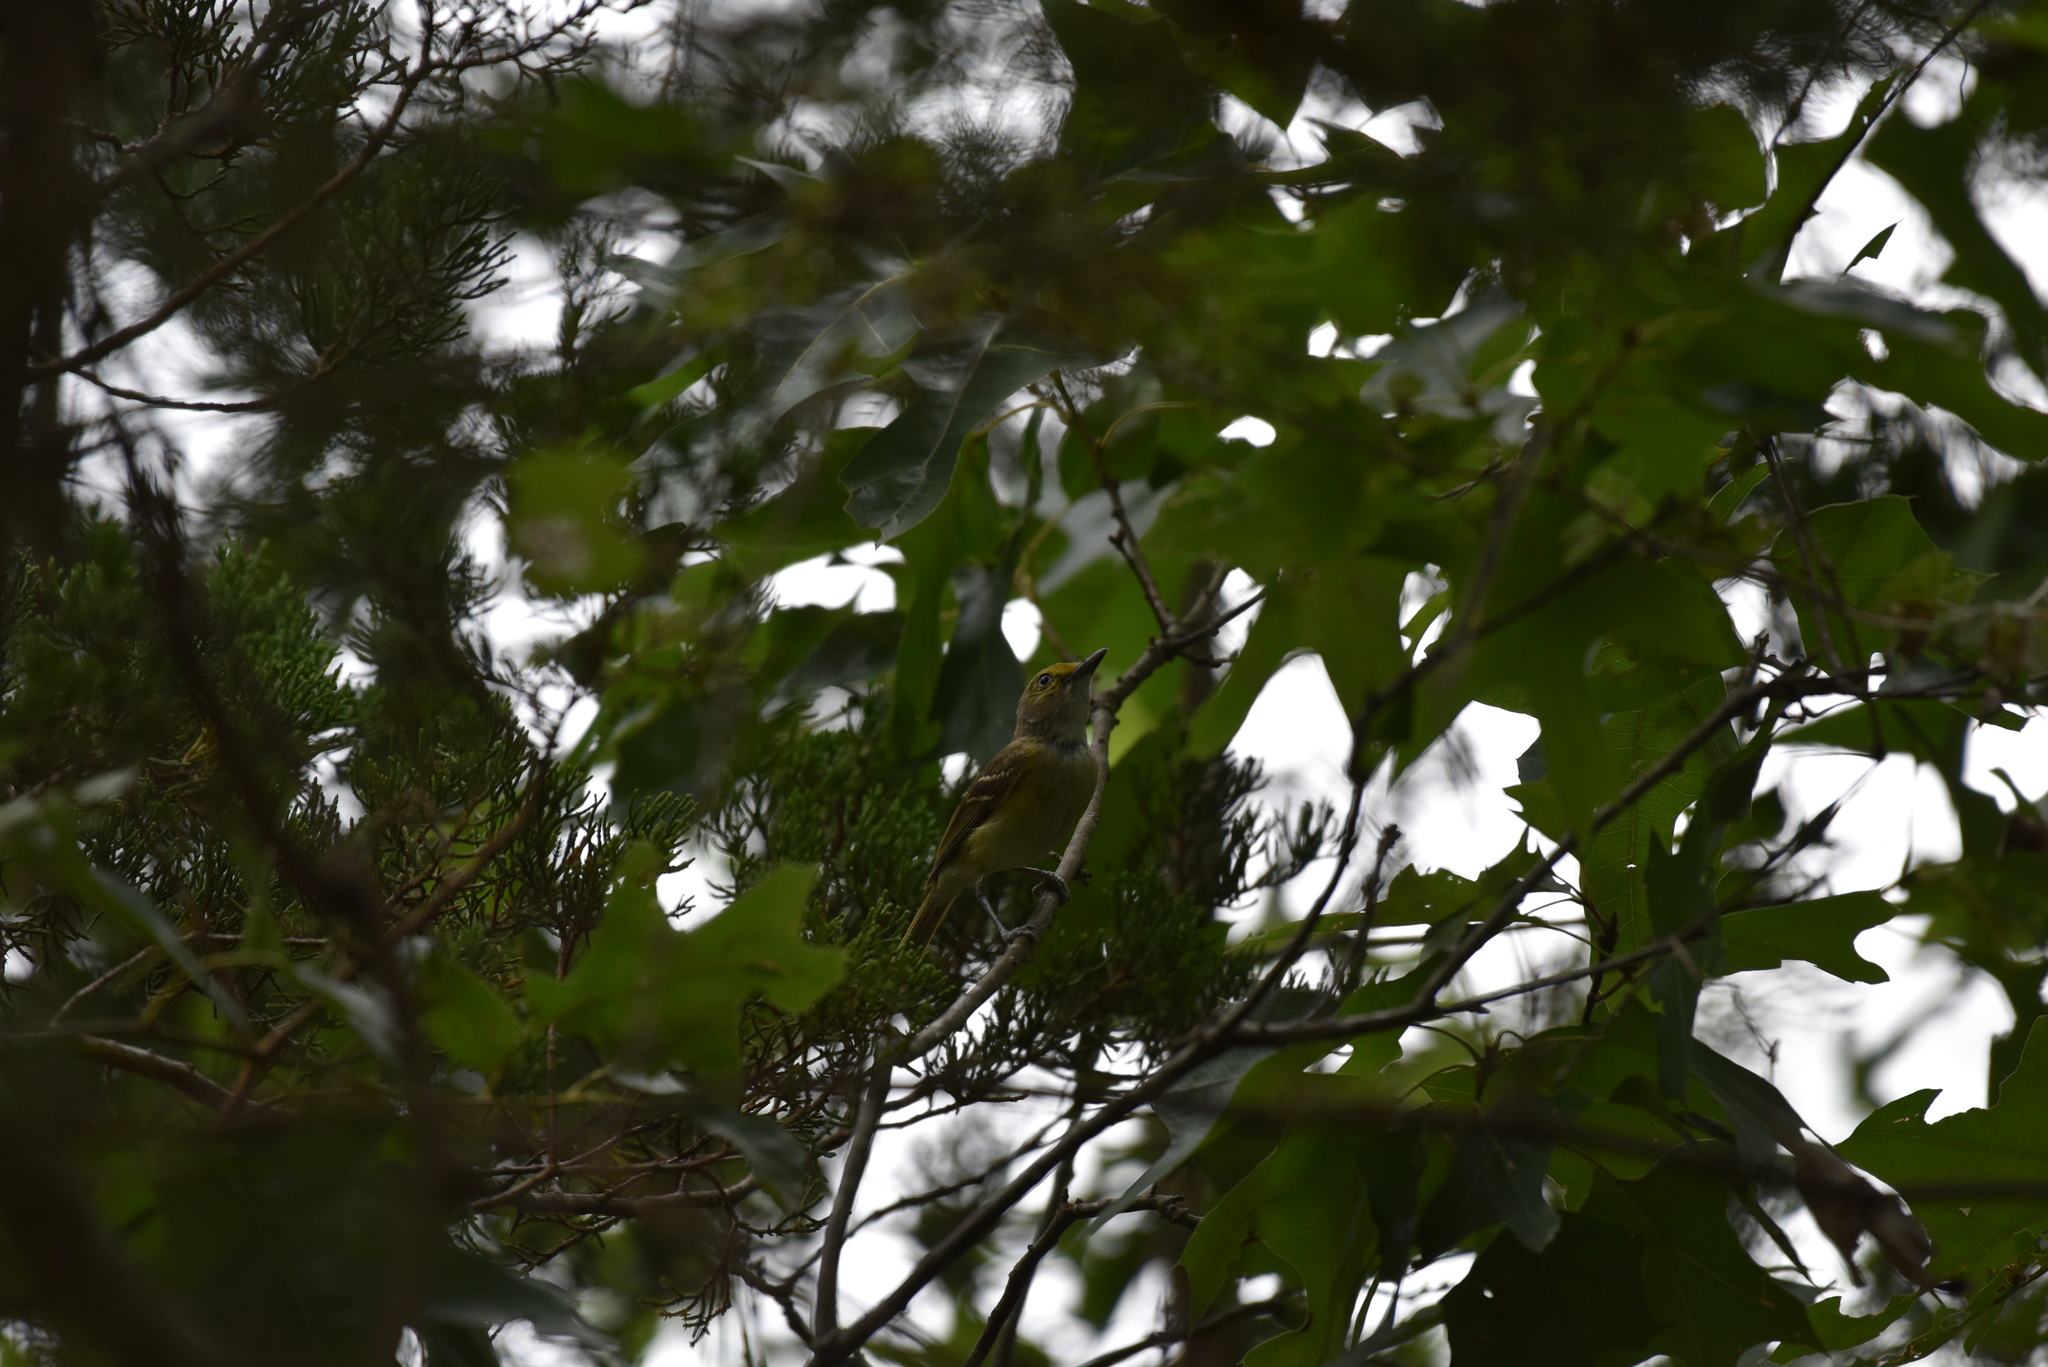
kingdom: Animalia
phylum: Chordata
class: Aves
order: Passeriformes
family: Vireonidae
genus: Vireo
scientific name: Vireo griseus
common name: White-eyed vireo
